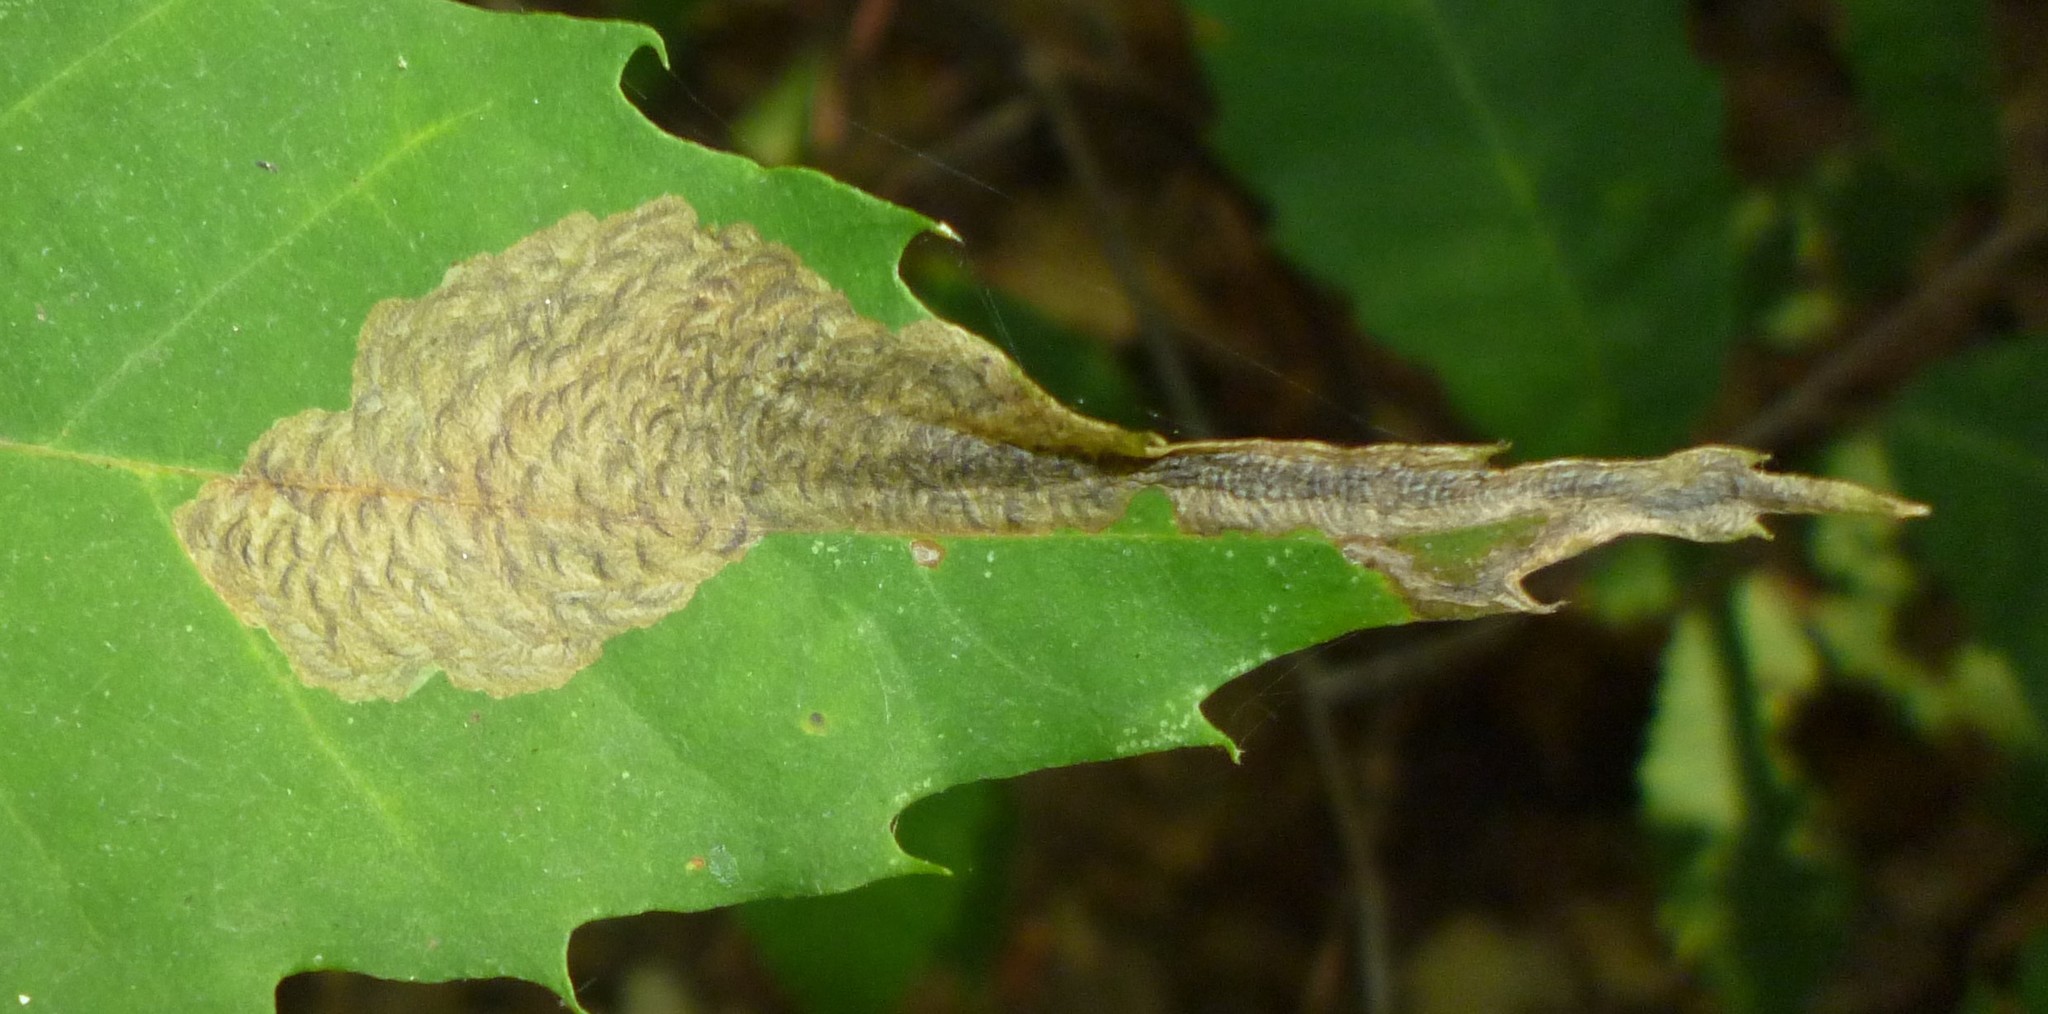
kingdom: Animalia
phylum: Arthropoda
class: Insecta
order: Lepidoptera
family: Tischeriidae
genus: Coptotriche
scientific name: Coptotriche castaneaeella
